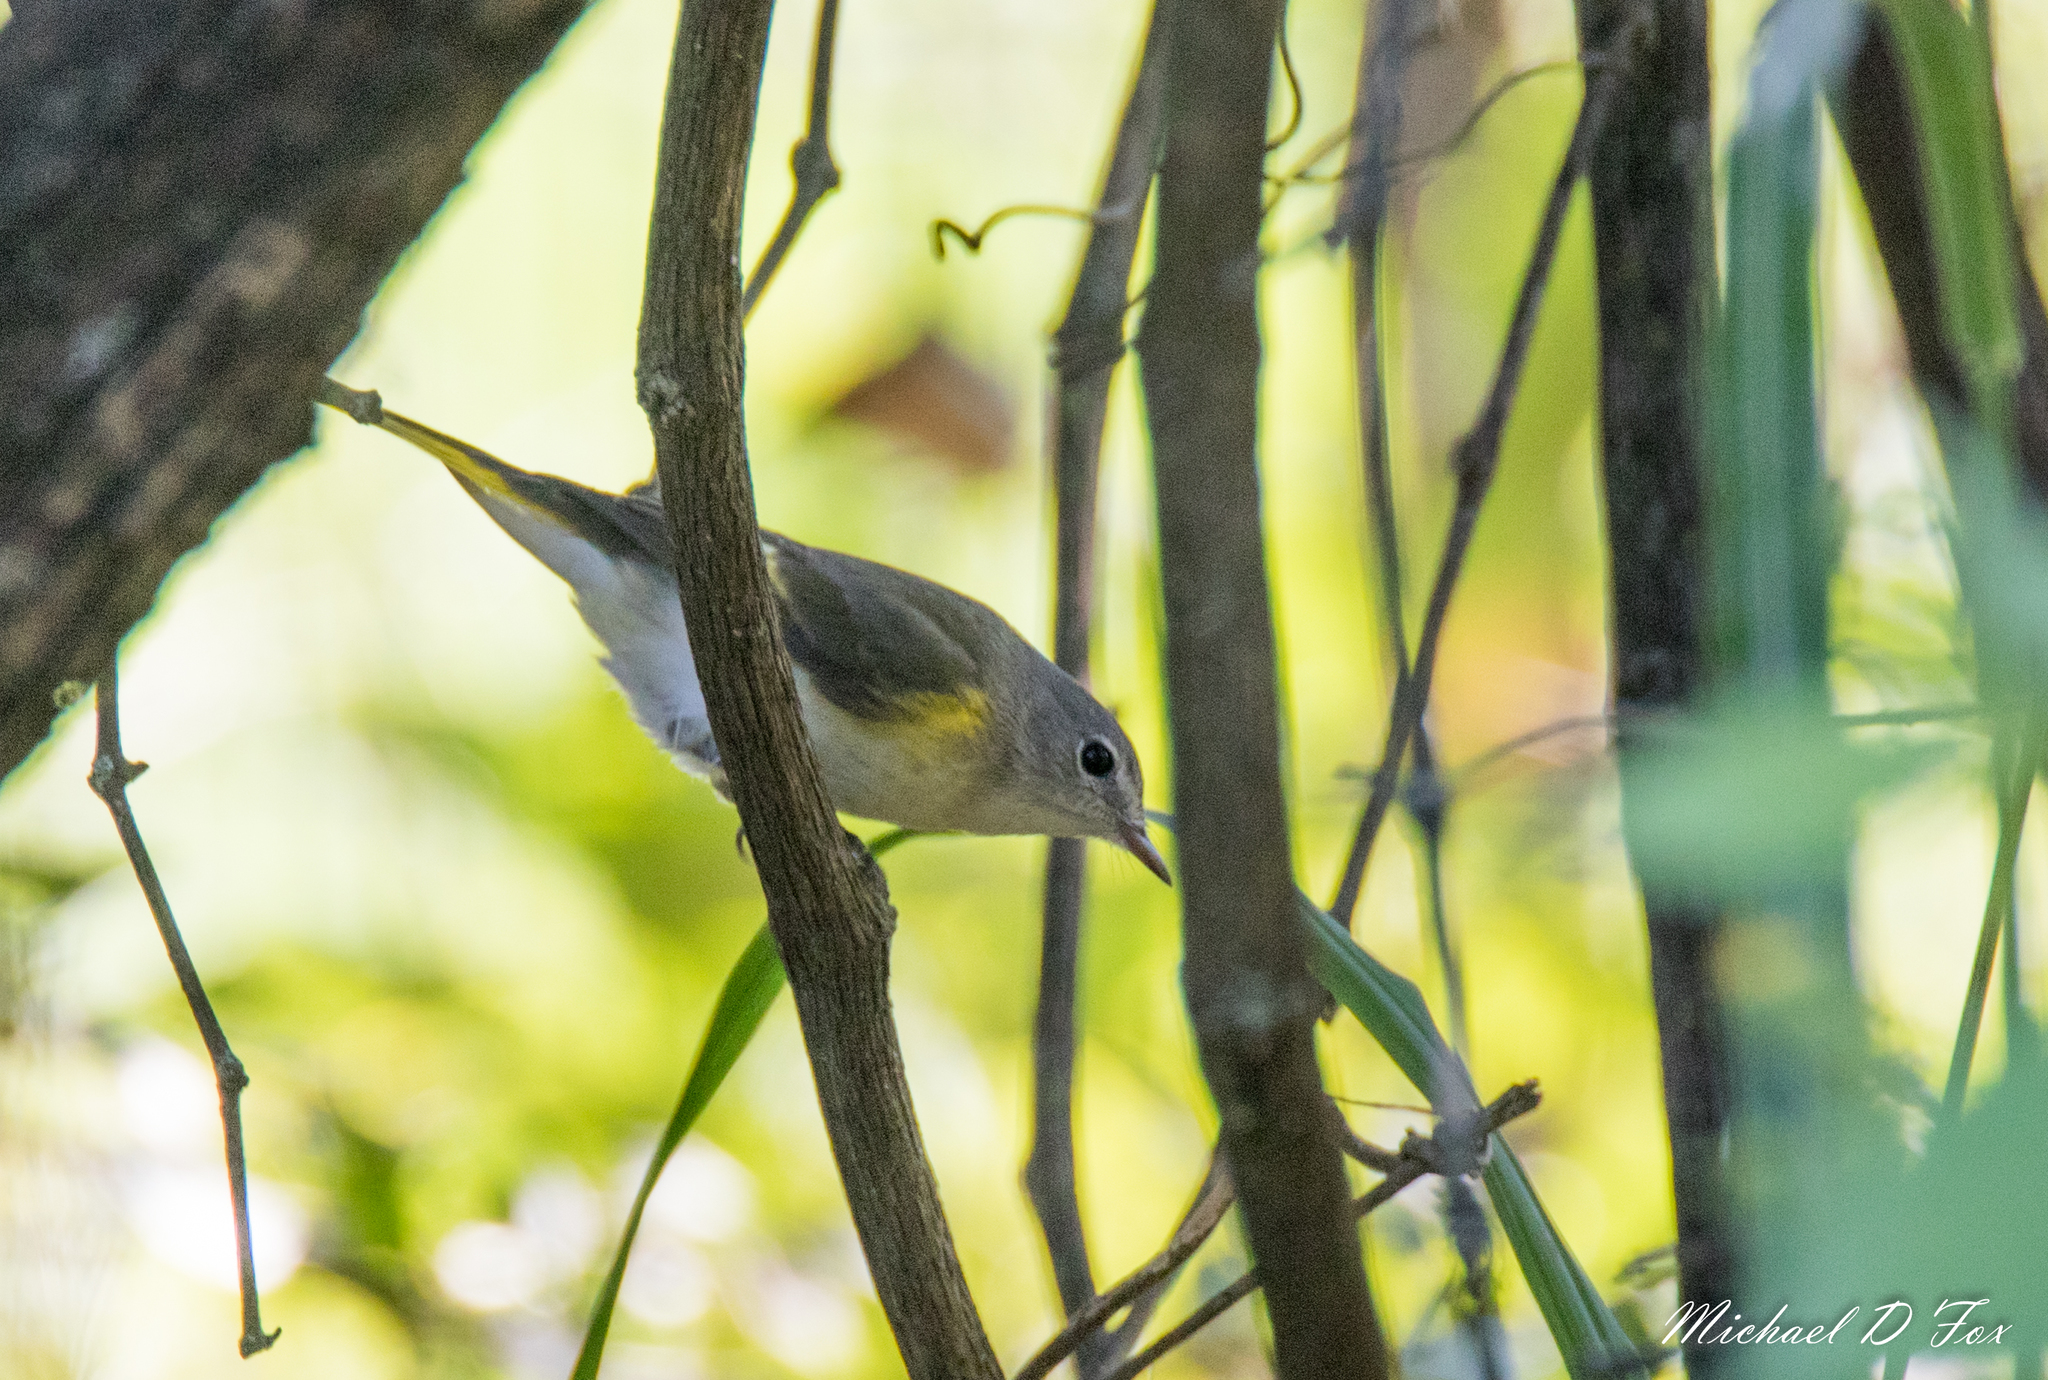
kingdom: Animalia
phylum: Chordata
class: Aves
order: Passeriformes
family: Parulidae
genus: Setophaga
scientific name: Setophaga ruticilla
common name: American redstart
